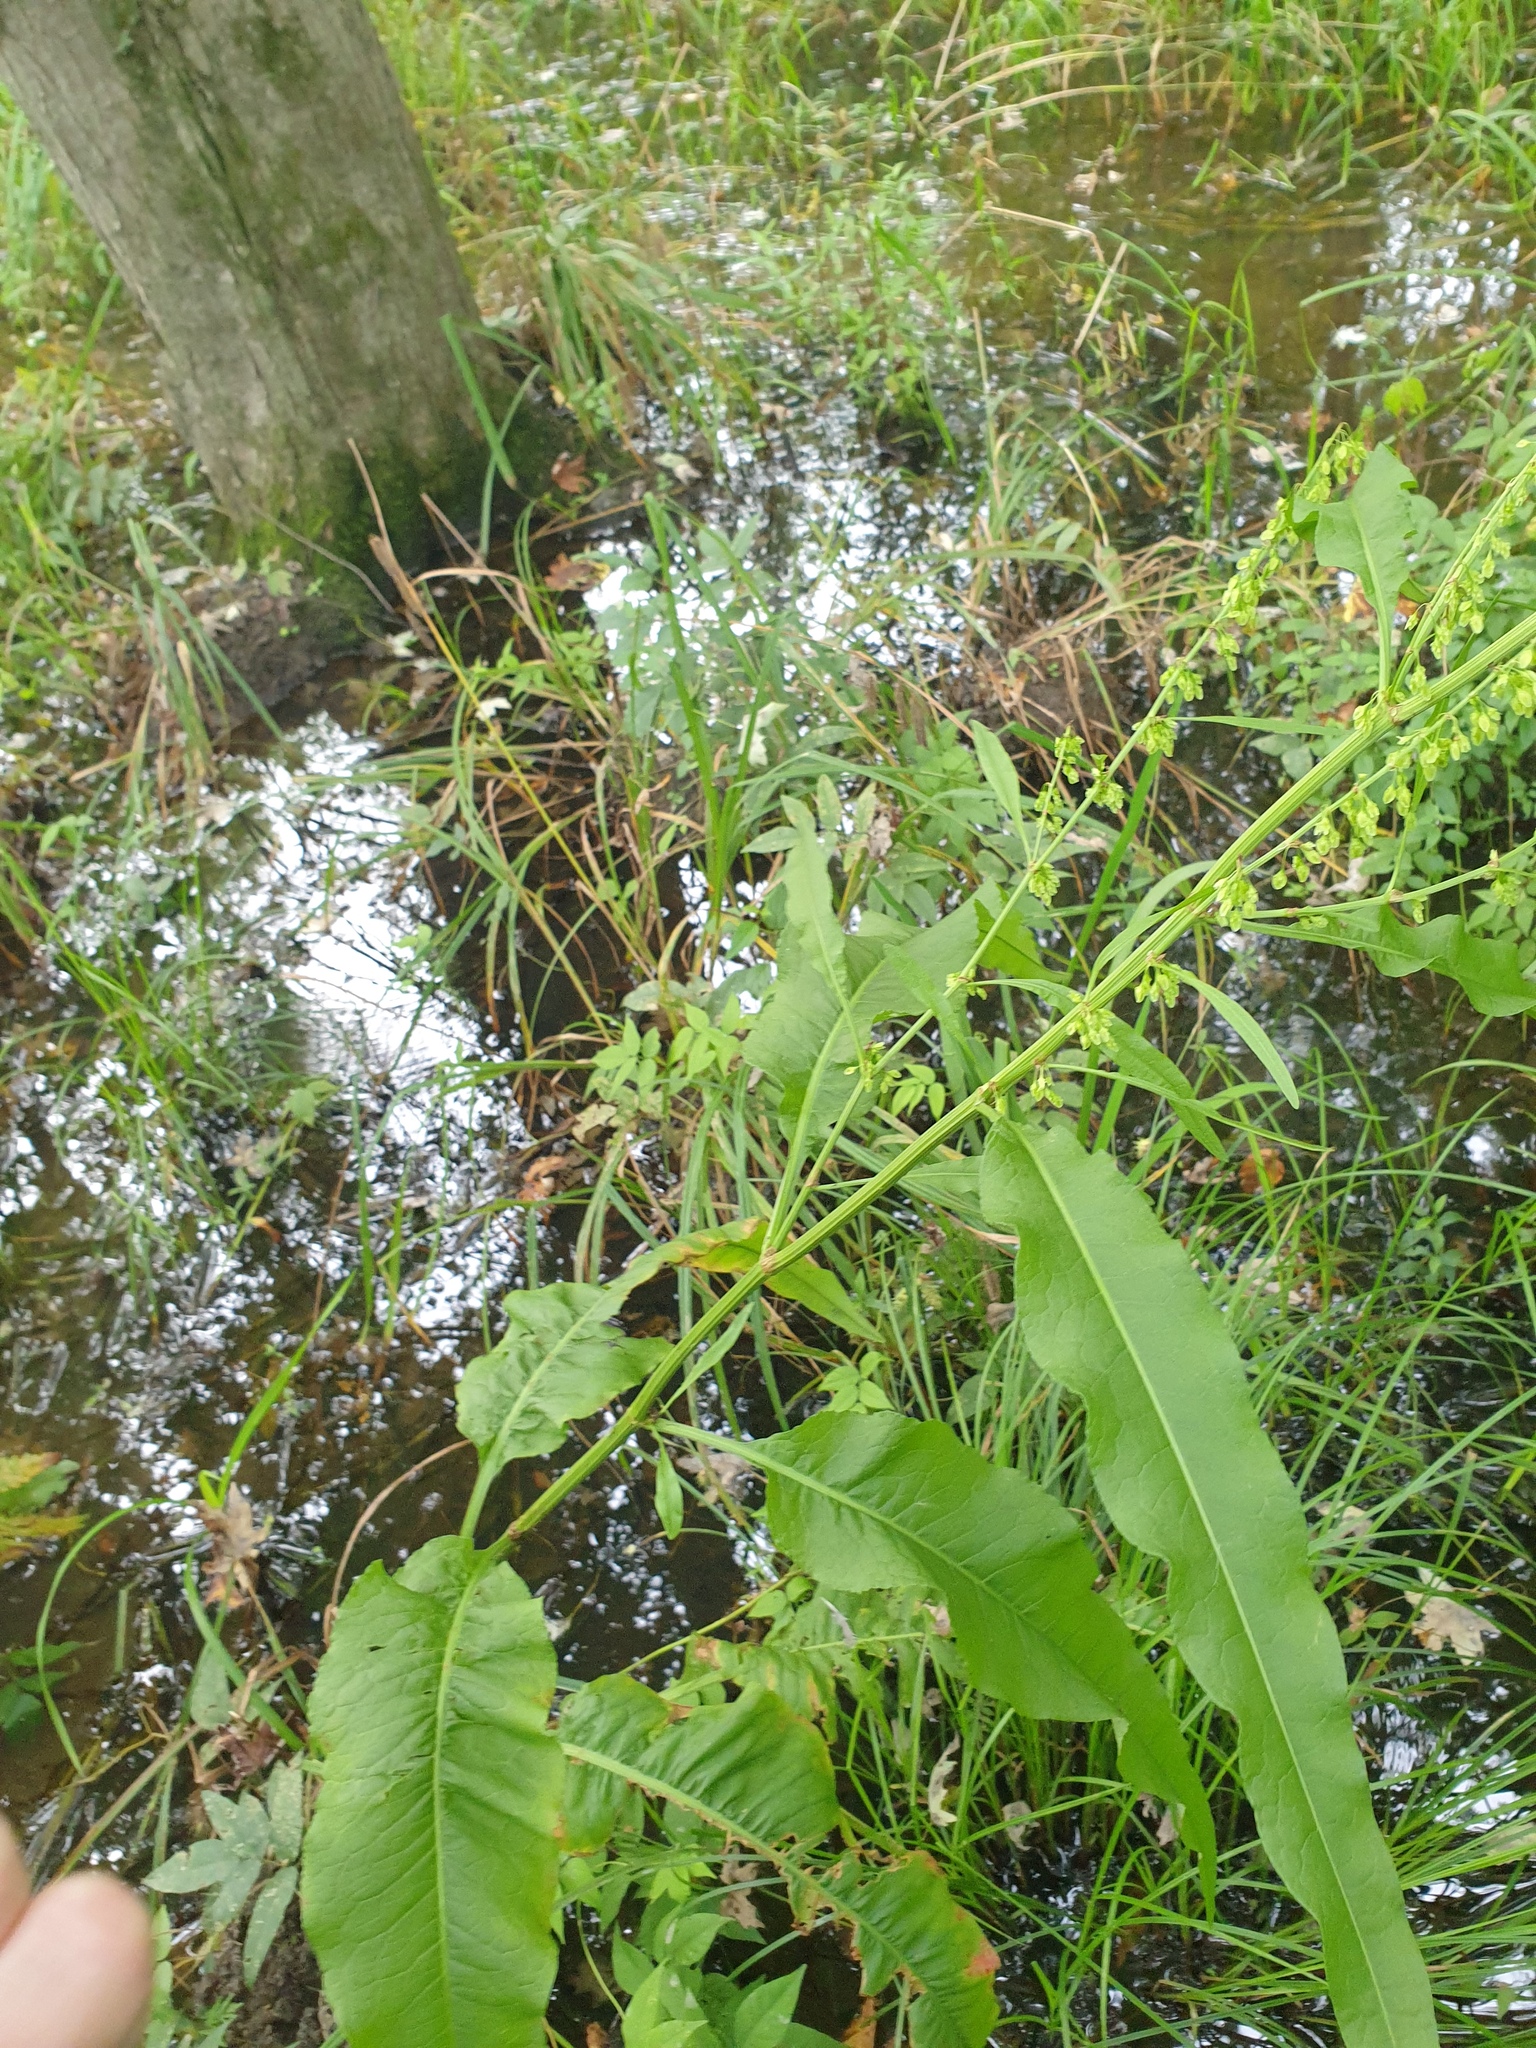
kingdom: Plantae
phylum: Tracheophyta
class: Magnoliopsida
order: Caryophyllales
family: Polygonaceae
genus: Rumex
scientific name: Rumex britannica
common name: British dock
